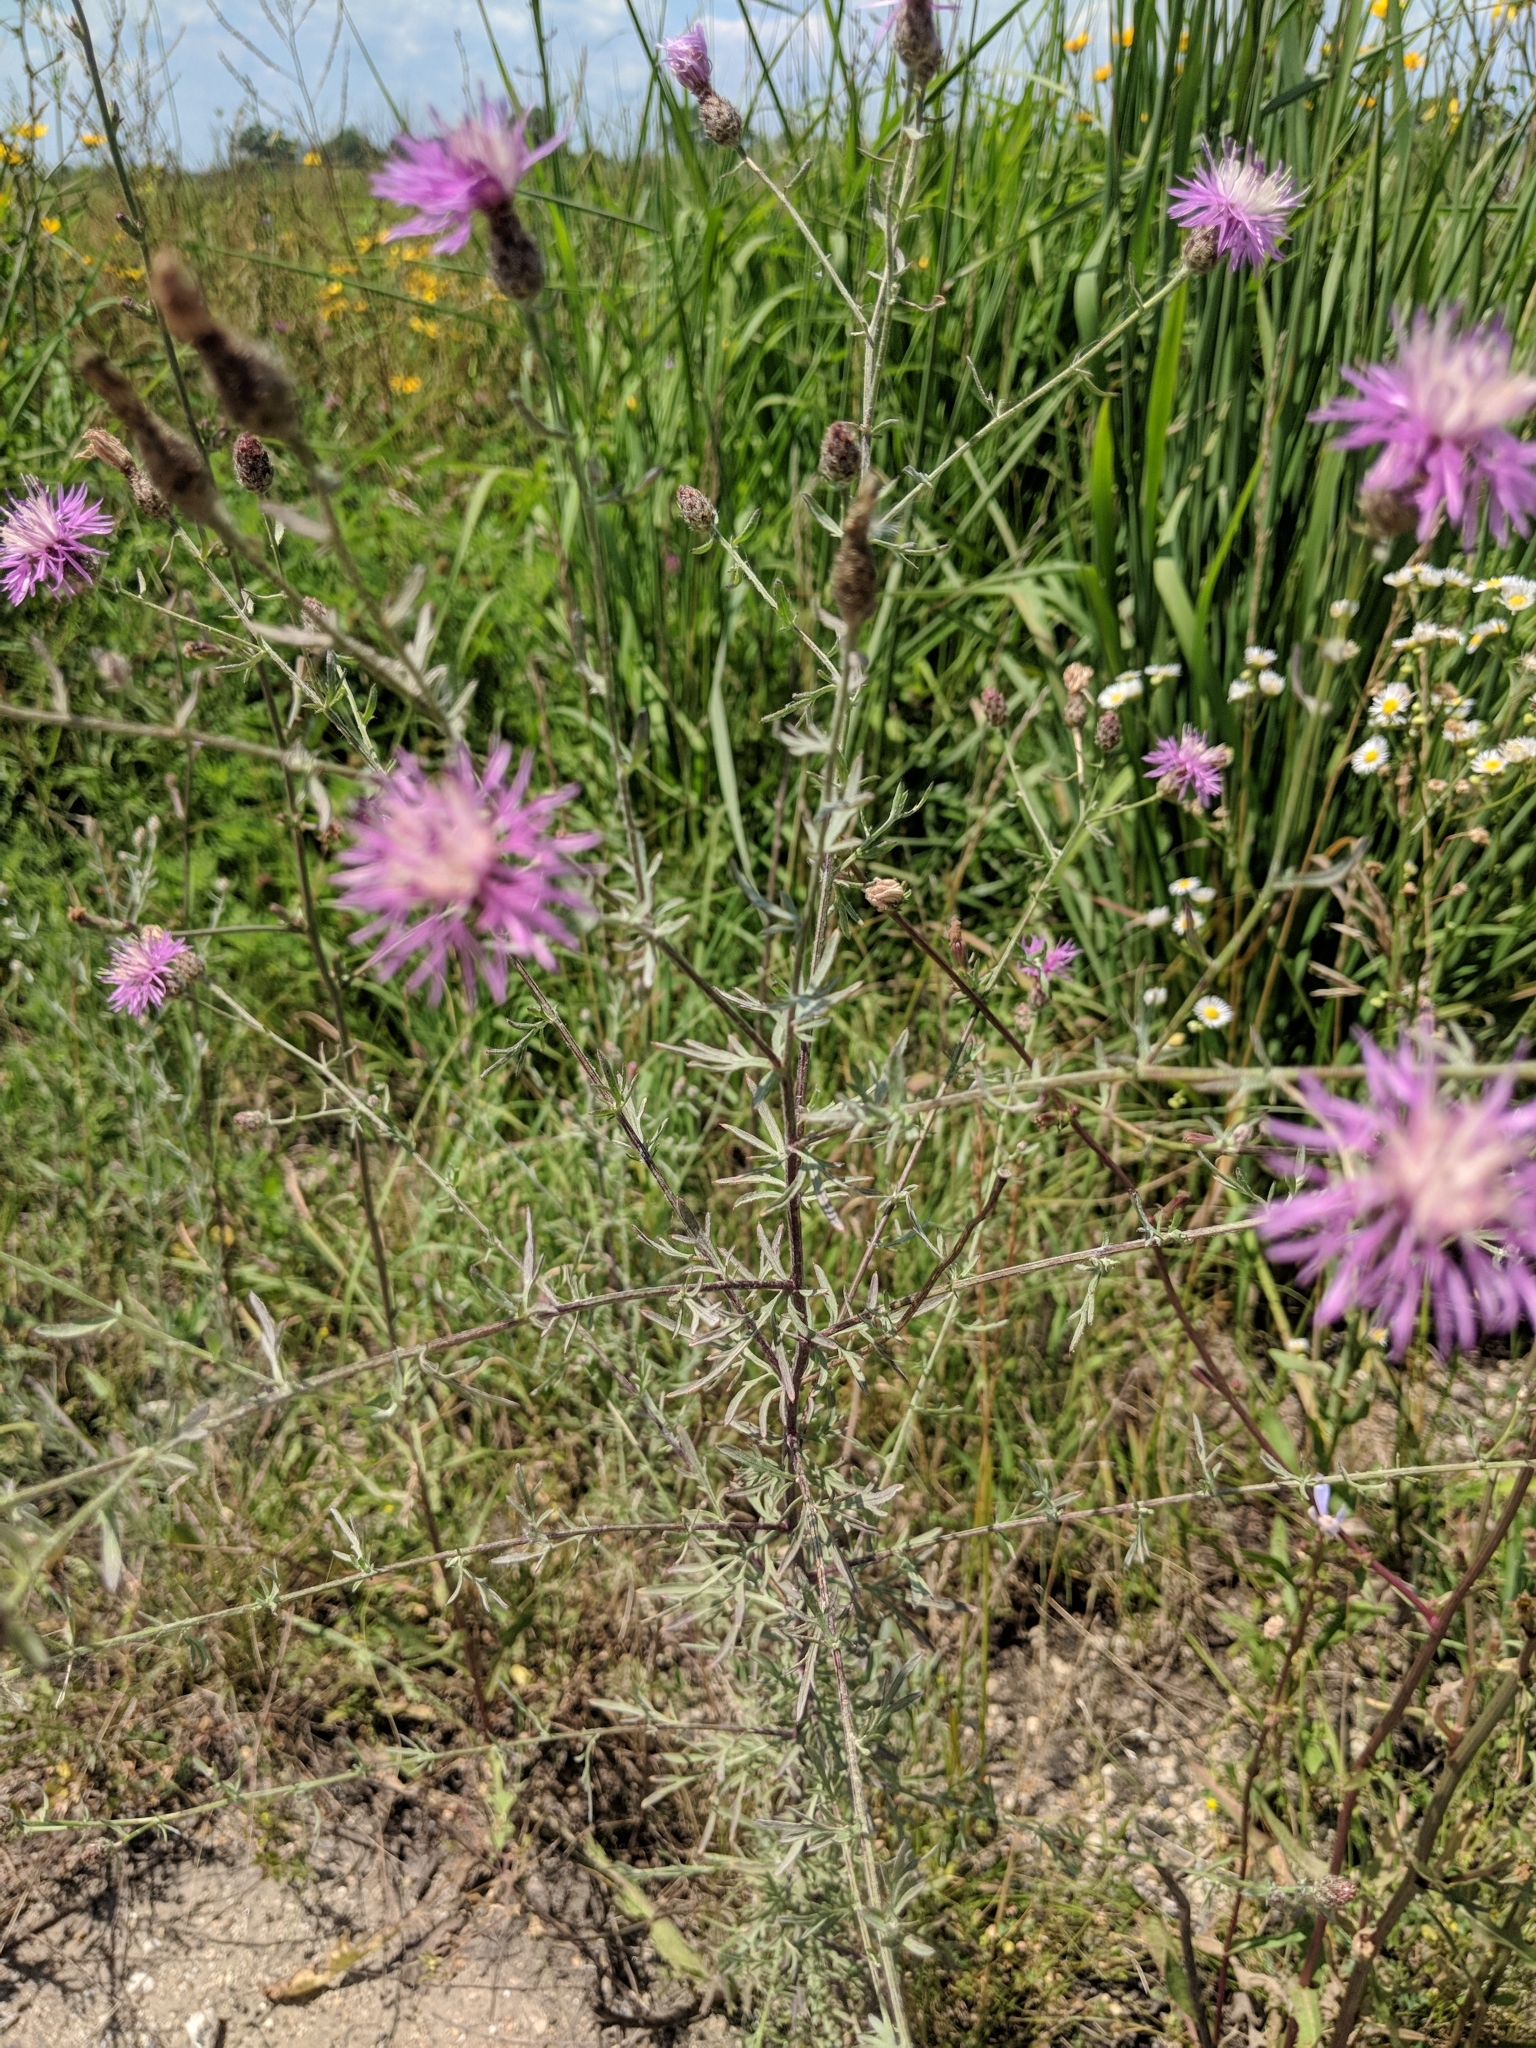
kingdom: Plantae
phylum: Tracheophyta
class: Magnoliopsida
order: Asterales
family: Asteraceae
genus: Centaurea
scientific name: Centaurea stoebe
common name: Spotted knapweed
